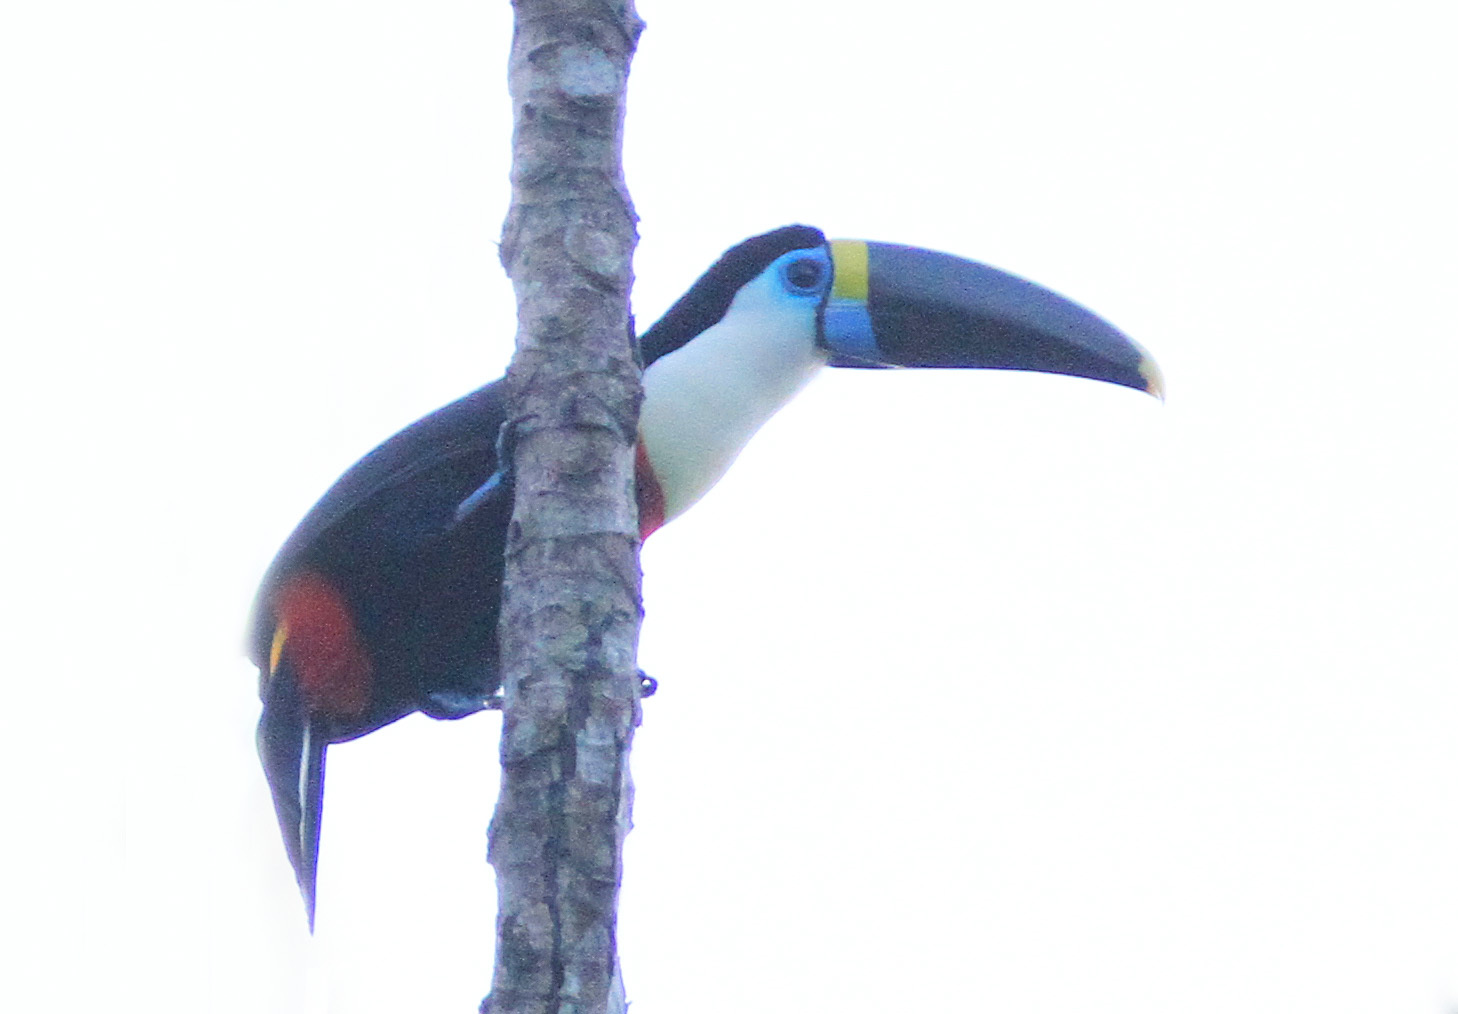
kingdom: Animalia
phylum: Chordata
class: Aves
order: Piciformes
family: Ramphastidae
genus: Ramphastos
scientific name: Ramphastos tucanus
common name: White-throated toucan
